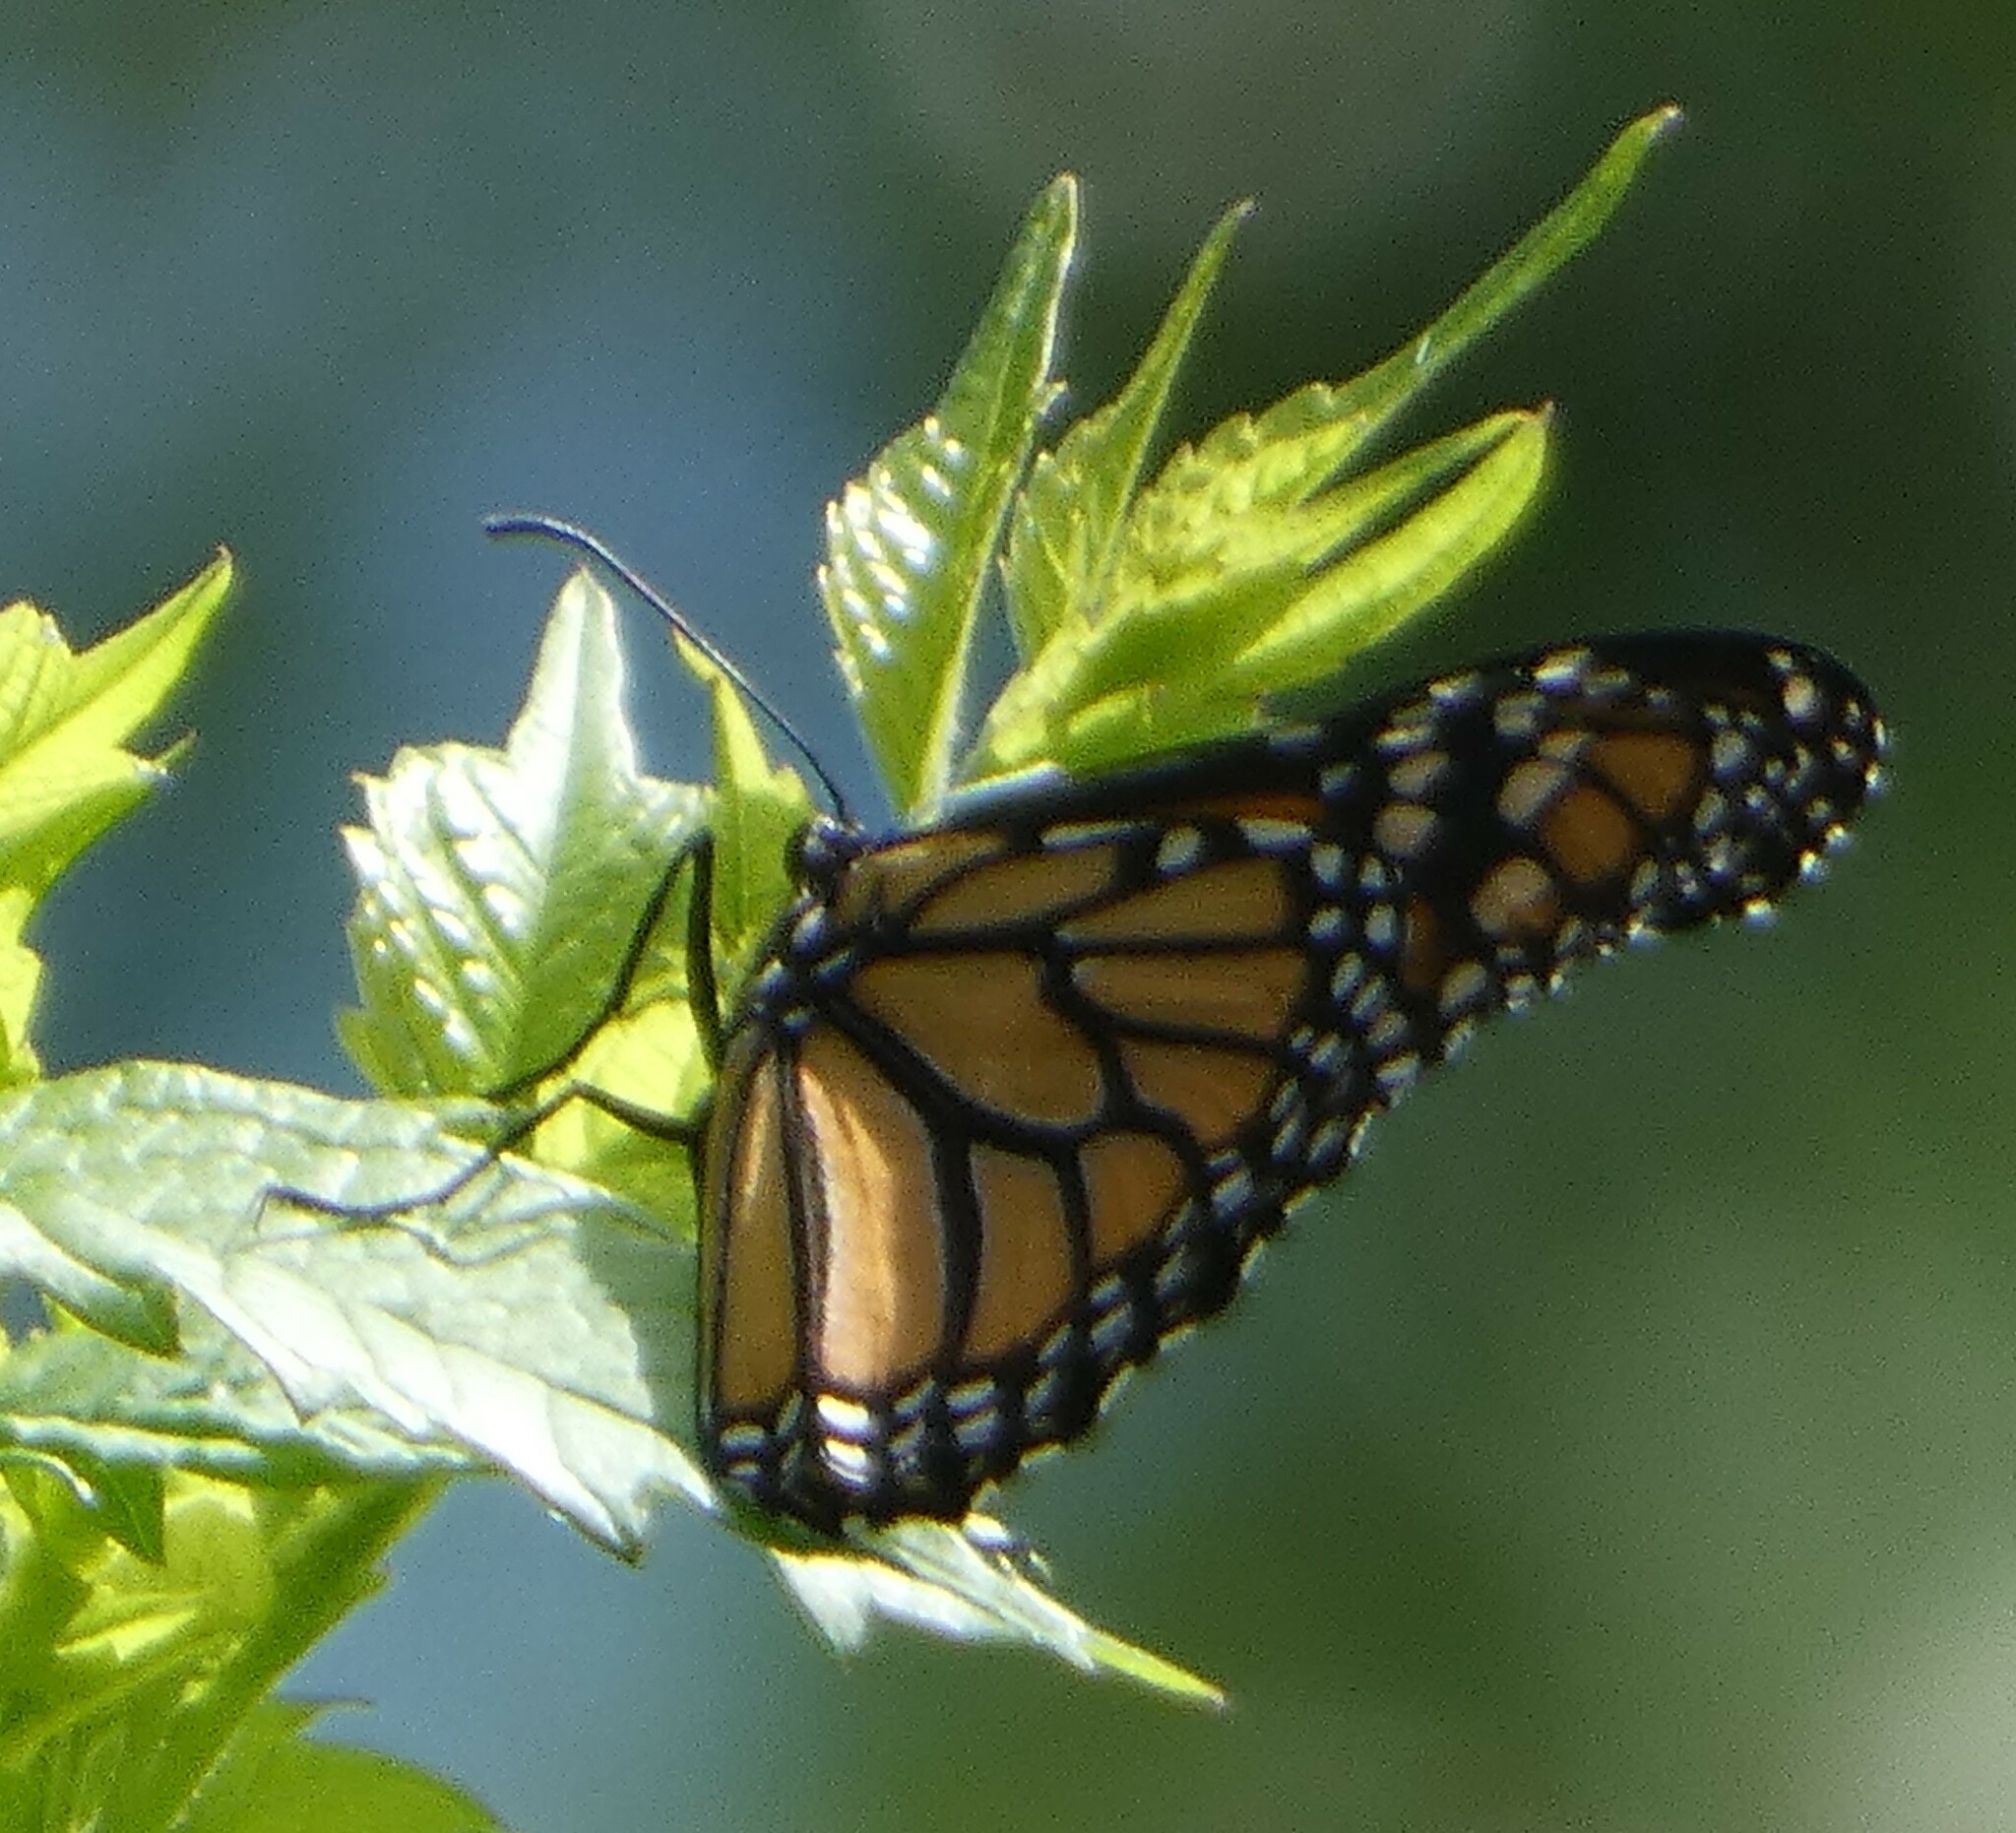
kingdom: Animalia
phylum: Arthropoda
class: Insecta
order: Lepidoptera
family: Nymphalidae
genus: Danaus
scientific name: Danaus plexippus
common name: Monarch
